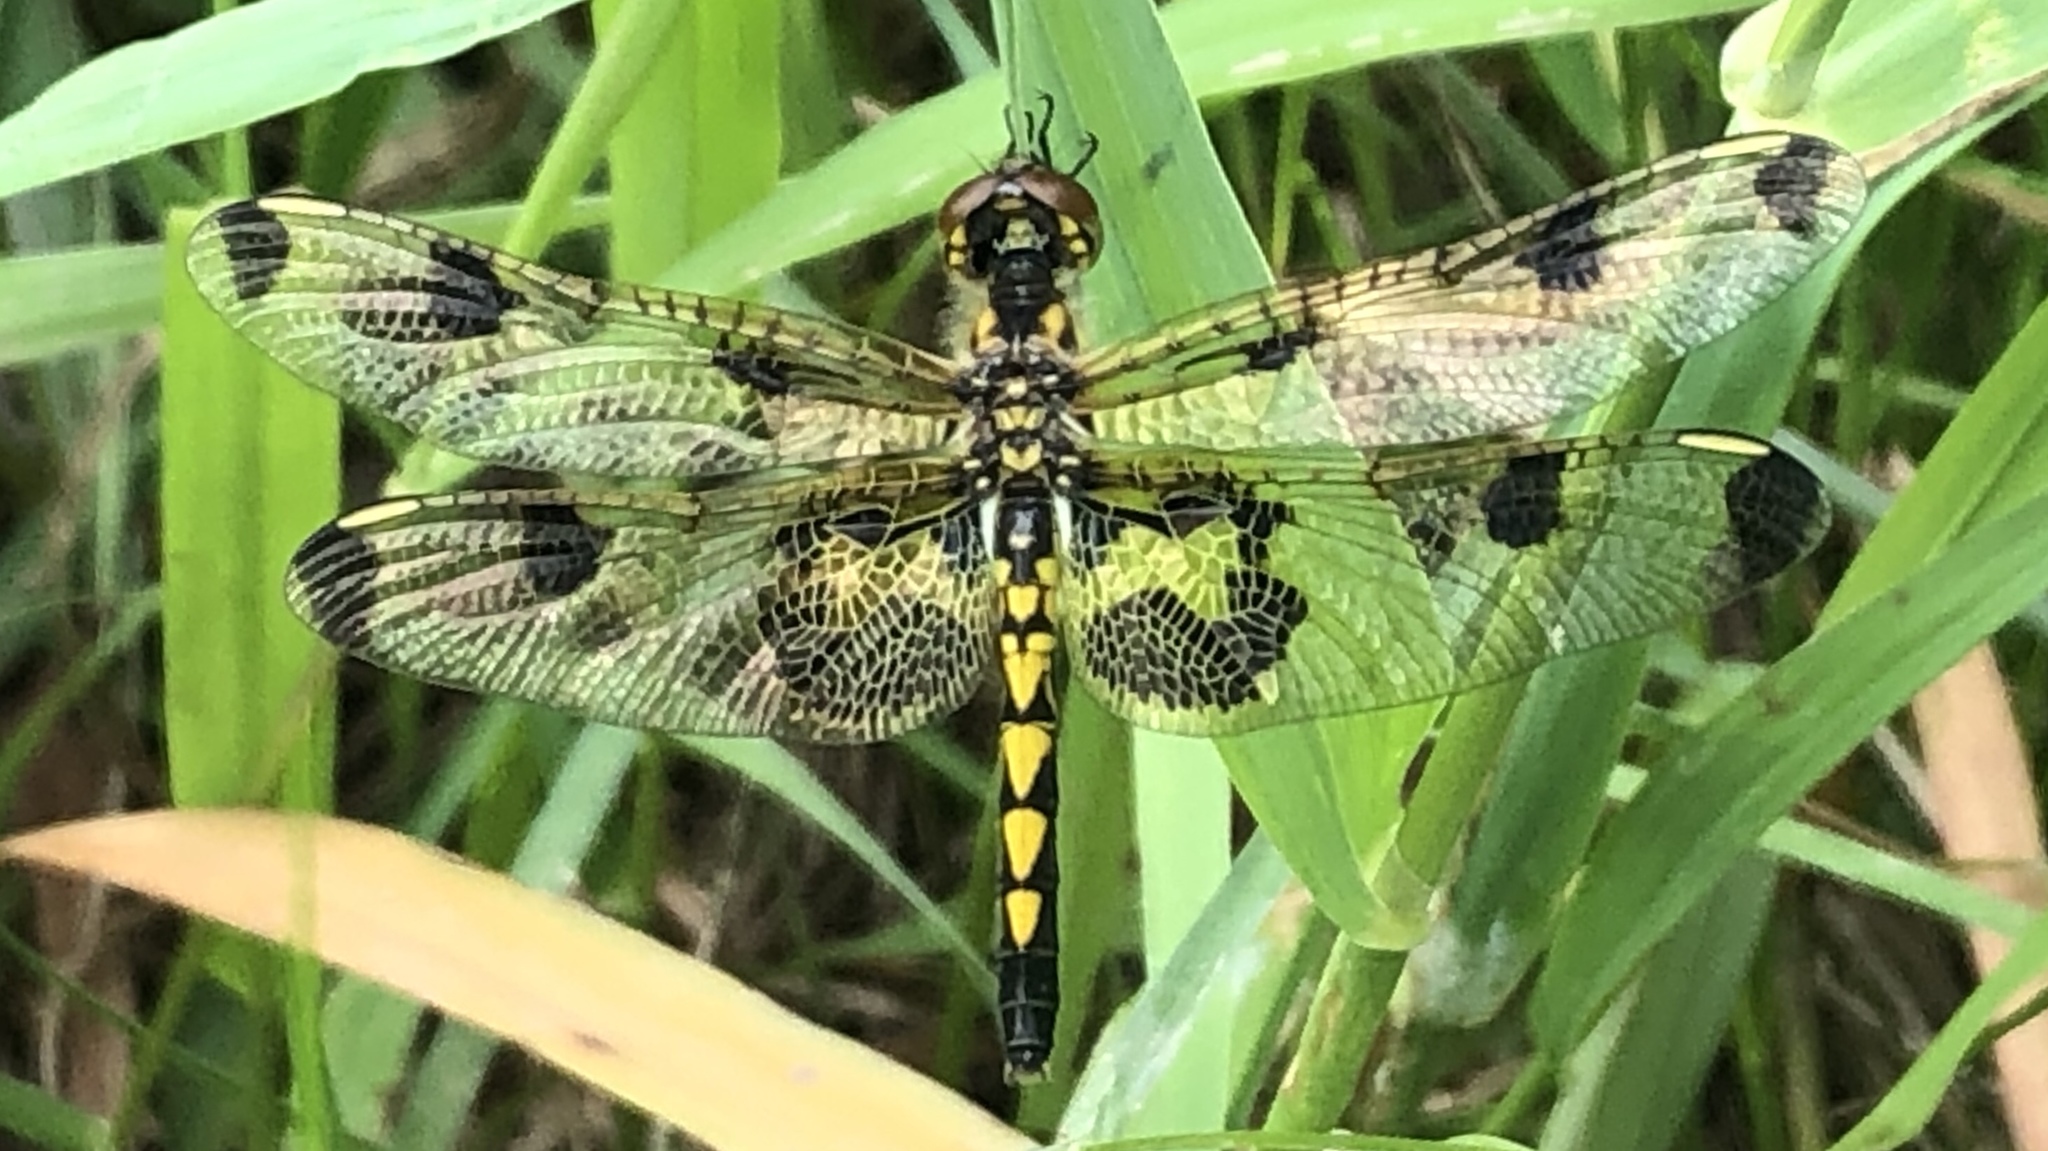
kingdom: Animalia
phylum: Arthropoda
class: Insecta
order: Odonata
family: Libellulidae
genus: Celithemis
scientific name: Celithemis elisa
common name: Calico pennant
